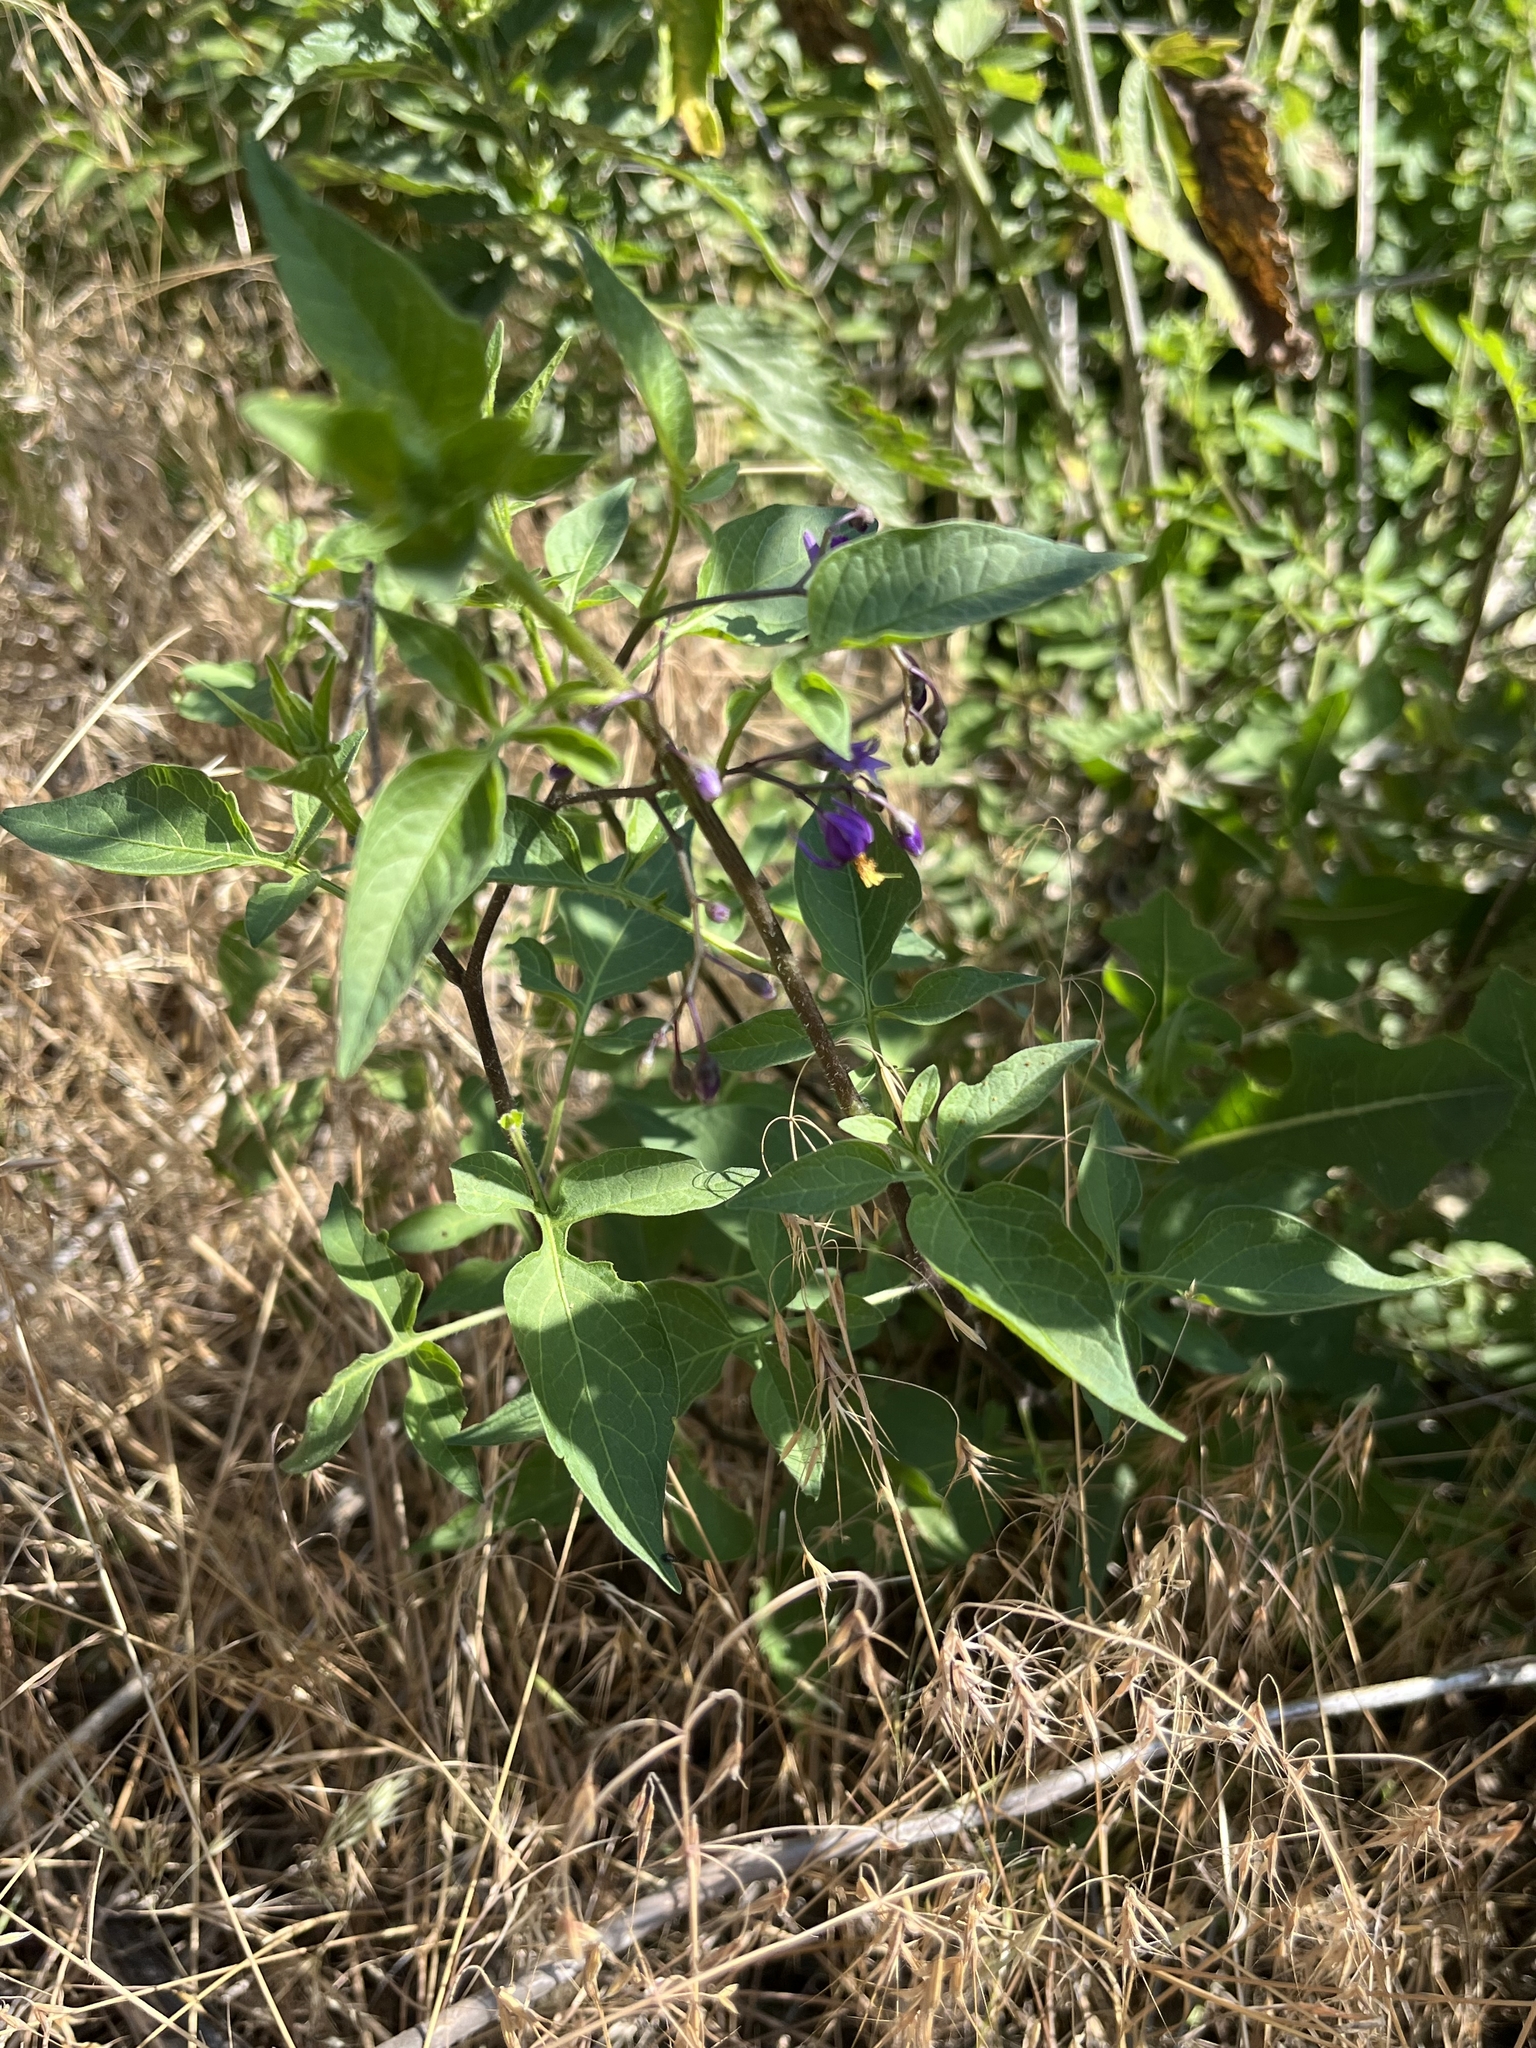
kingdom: Plantae
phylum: Tracheophyta
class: Magnoliopsida
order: Solanales
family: Solanaceae
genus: Solanum
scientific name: Solanum dulcamara
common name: Climbing nightshade
